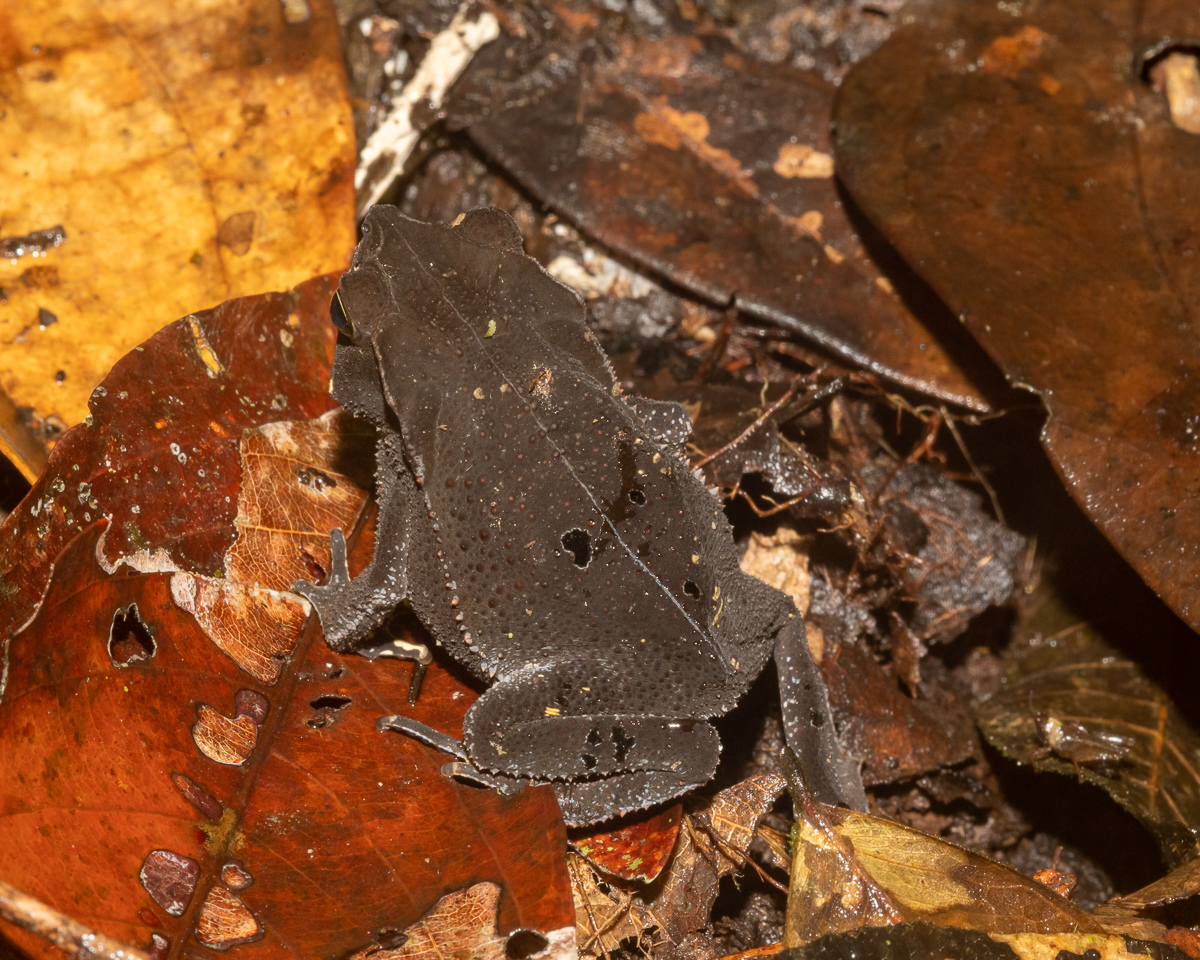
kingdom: Animalia
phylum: Chordata
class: Amphibia
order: Anura
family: Bufonidae
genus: Rhinella
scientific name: Rhinella margaritifera
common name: Mitred toad
